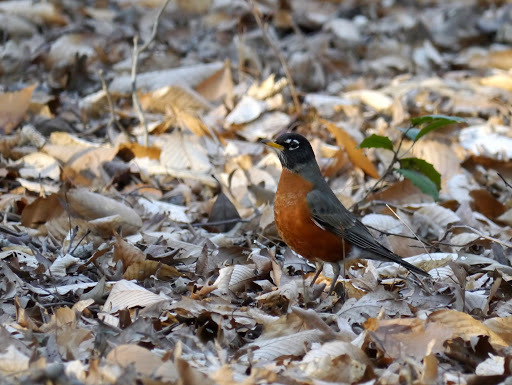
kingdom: Animalia
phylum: Chordata
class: Aves
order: Passeriformes
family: Turdidae
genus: Turdus
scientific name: Turdus migratorius
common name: American robin
